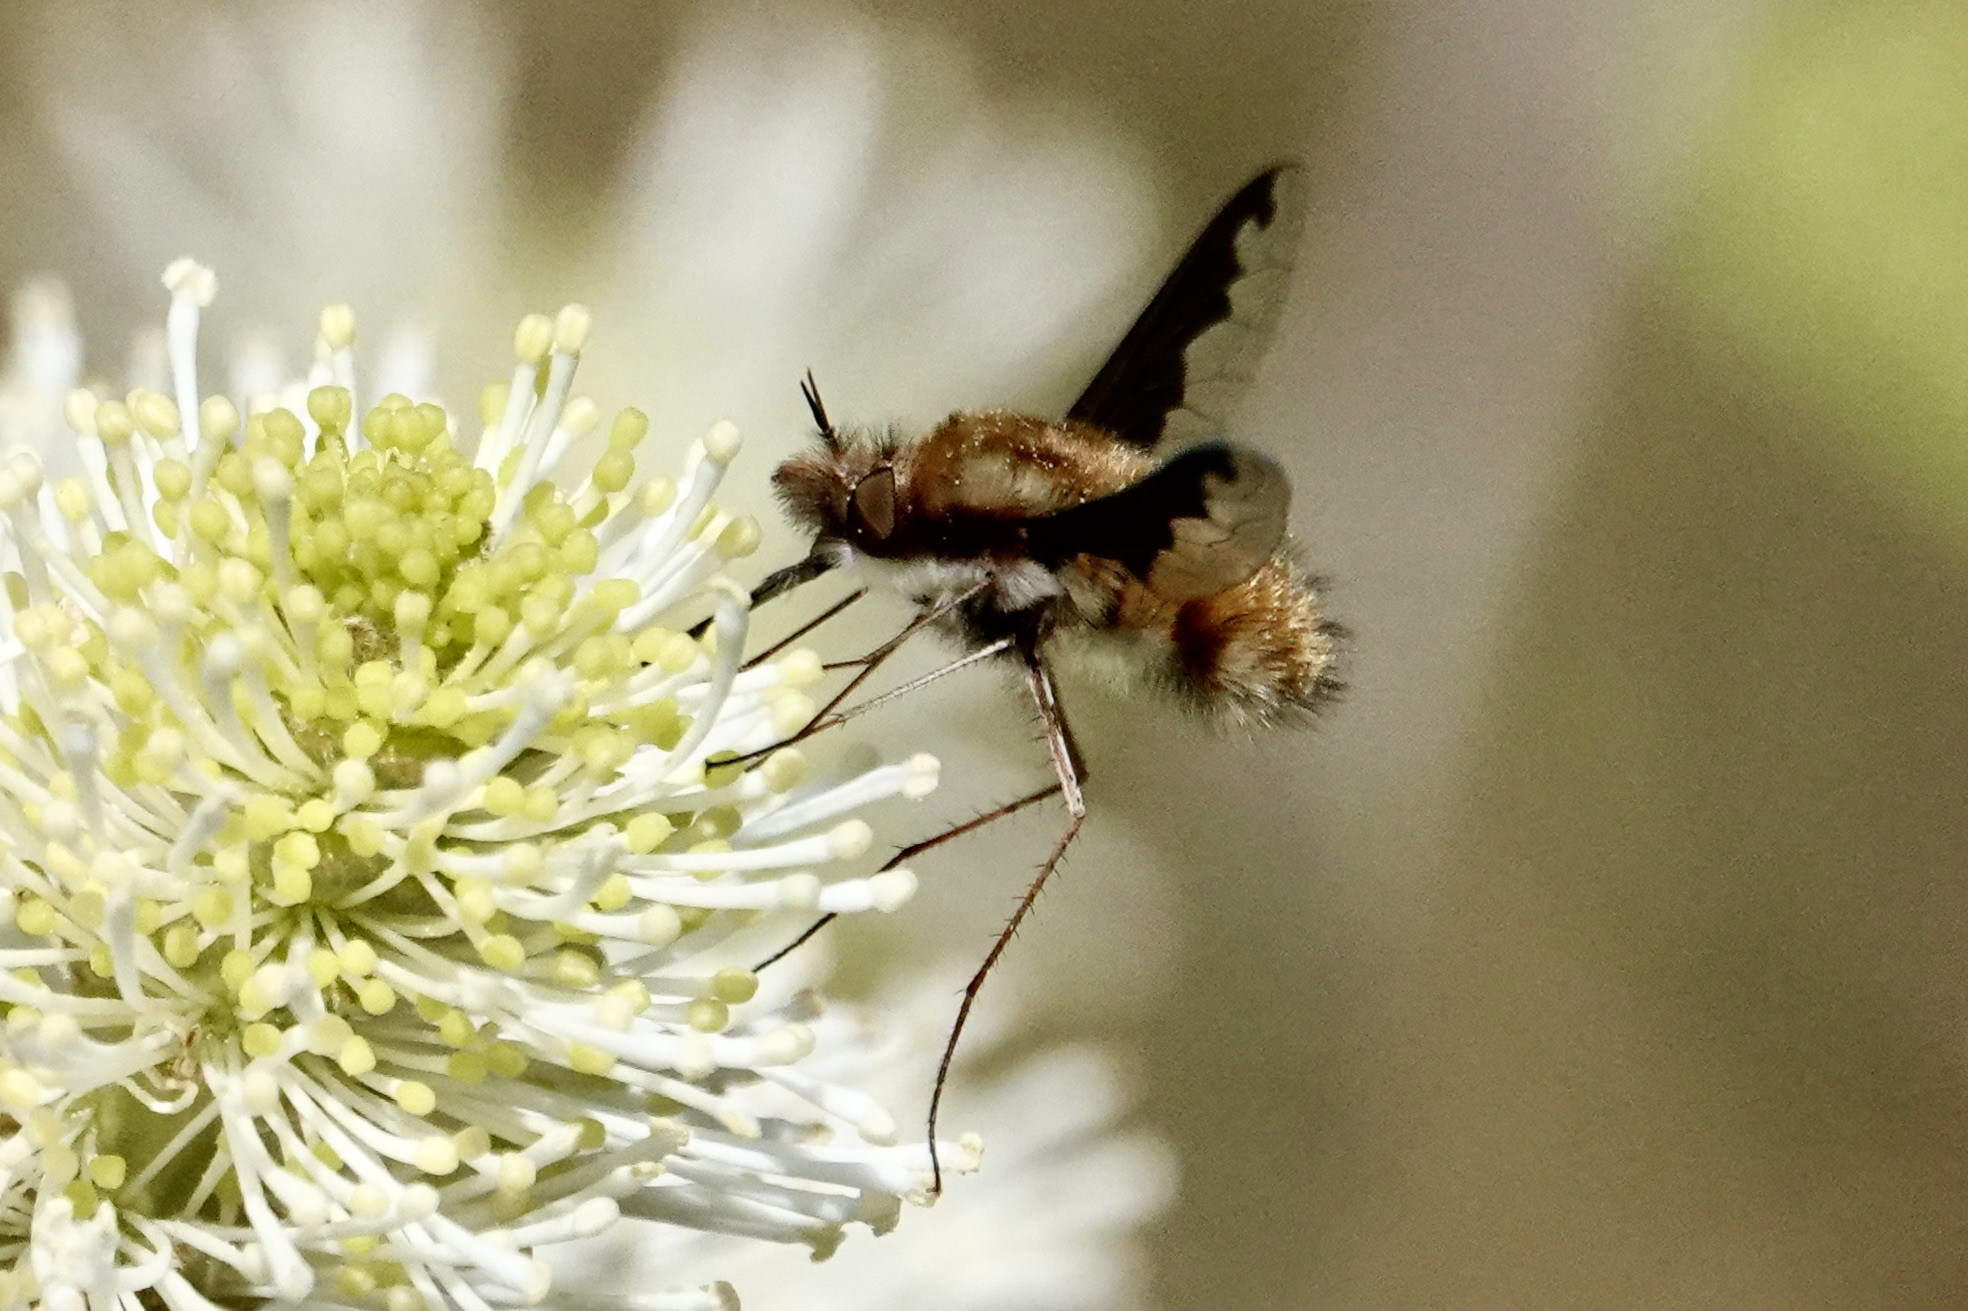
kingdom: Animalia
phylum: Arthropoda
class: Insecta
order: Diptera
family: Bombyliidae
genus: Bombylius
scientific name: Bombylius major
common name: Bee fly
